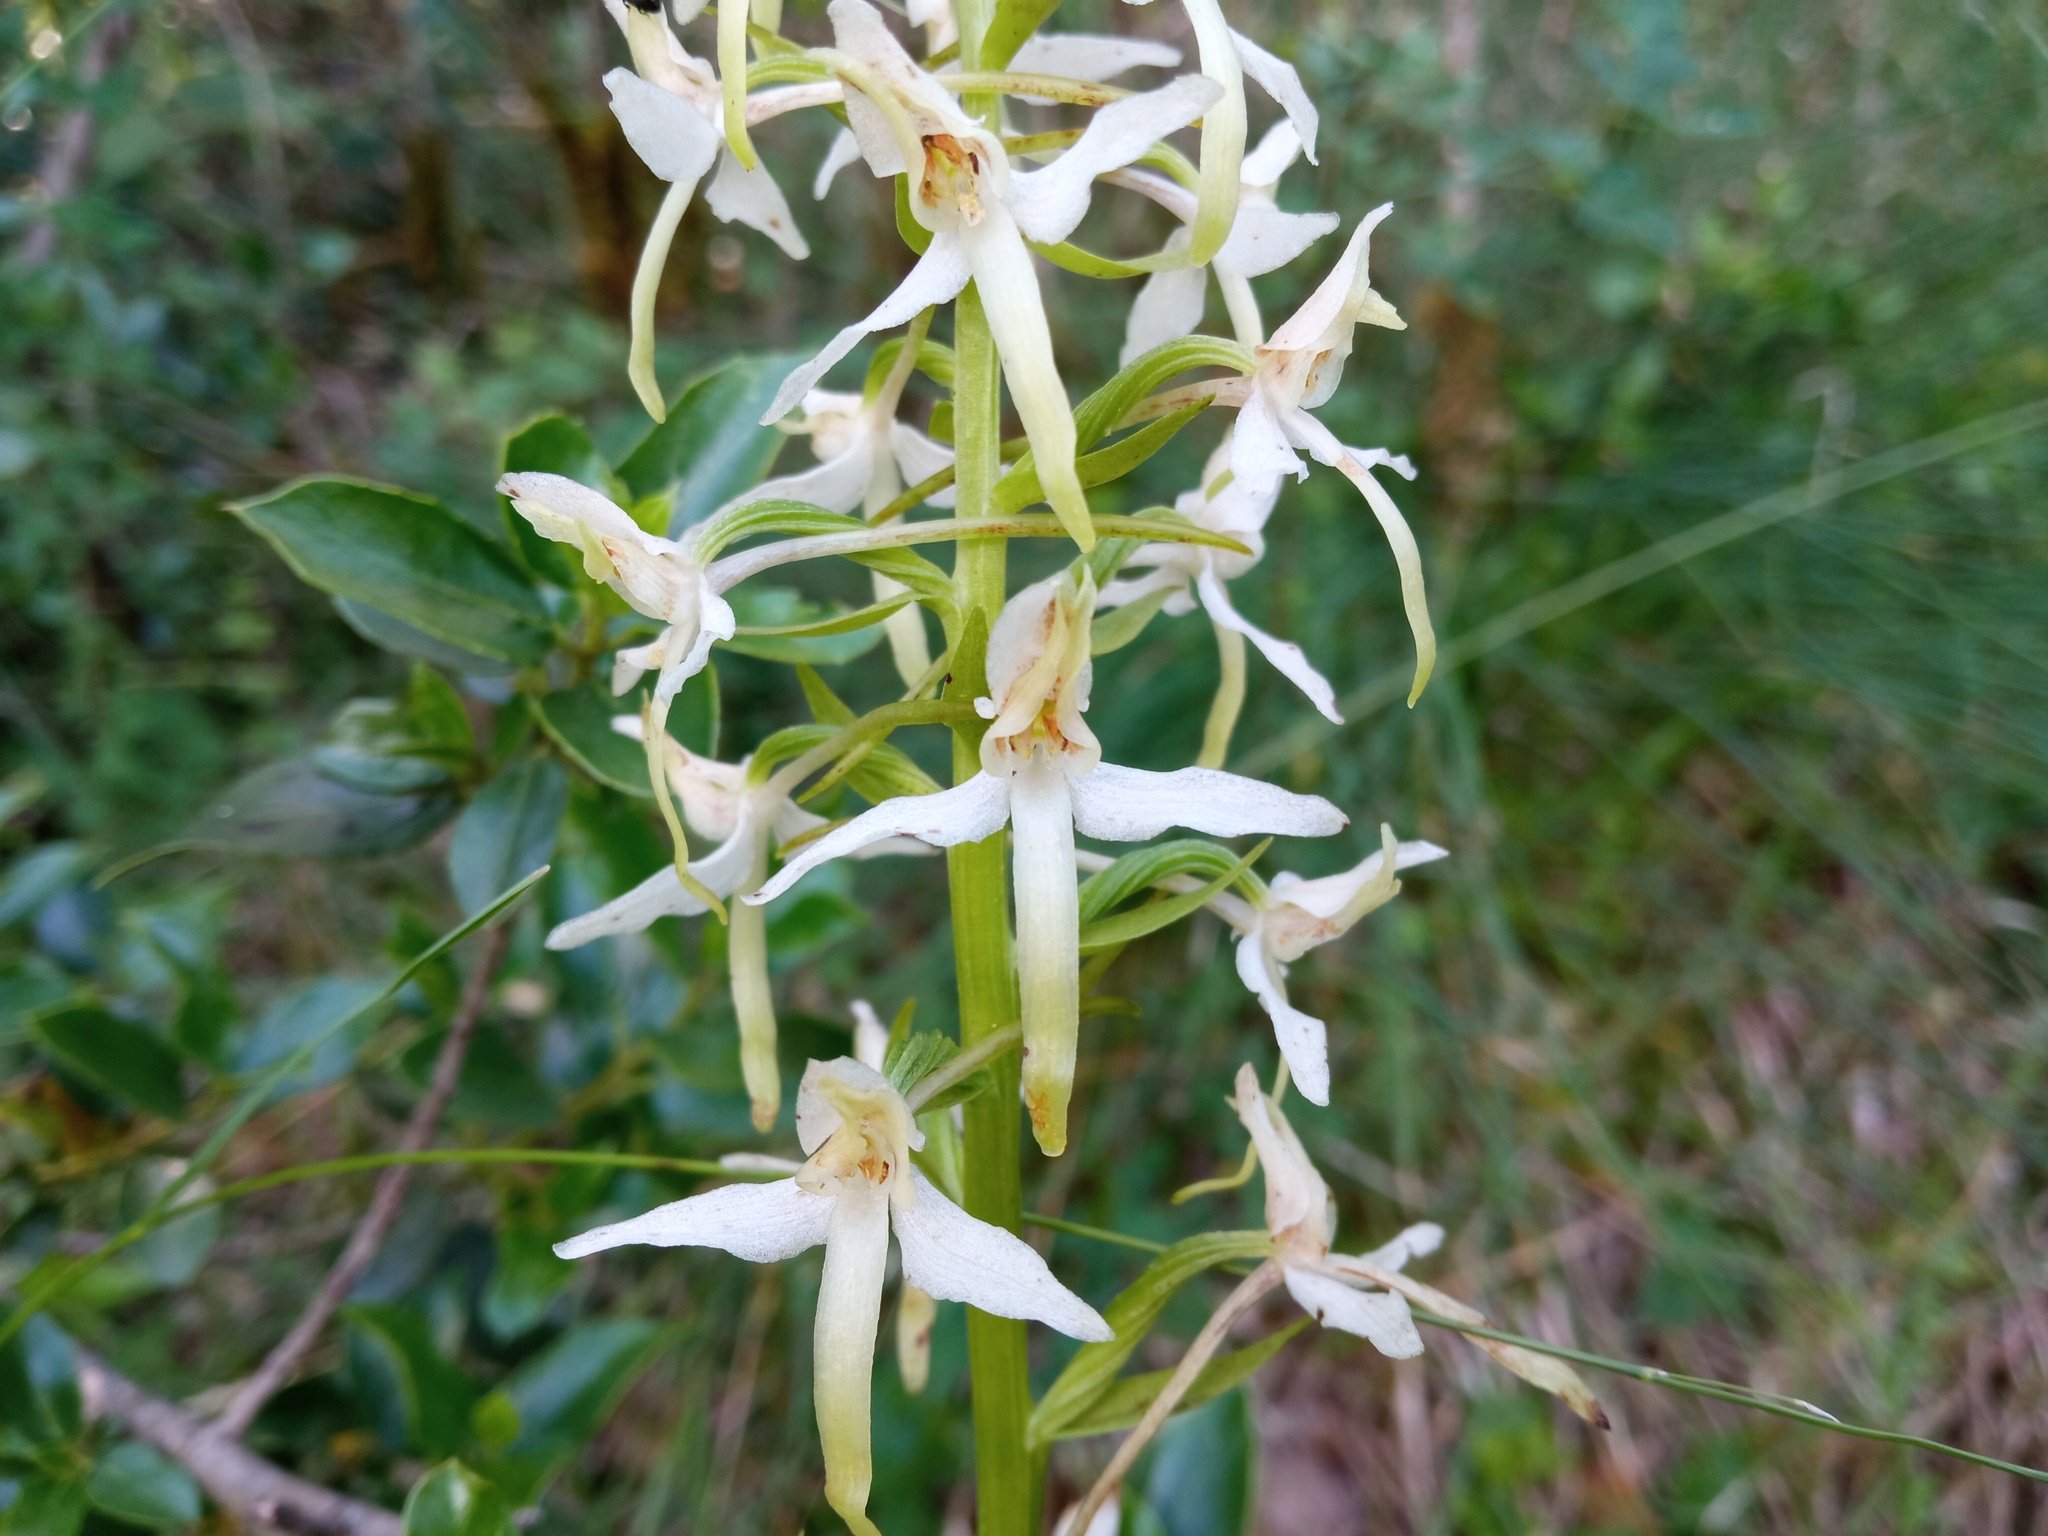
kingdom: Plantae
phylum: Tracheophyta
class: Liliopsida
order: Asparagales
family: Orchidaceae
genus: Platanthera
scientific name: Platanthera bifolia
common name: Lesser butterfly-orchid
